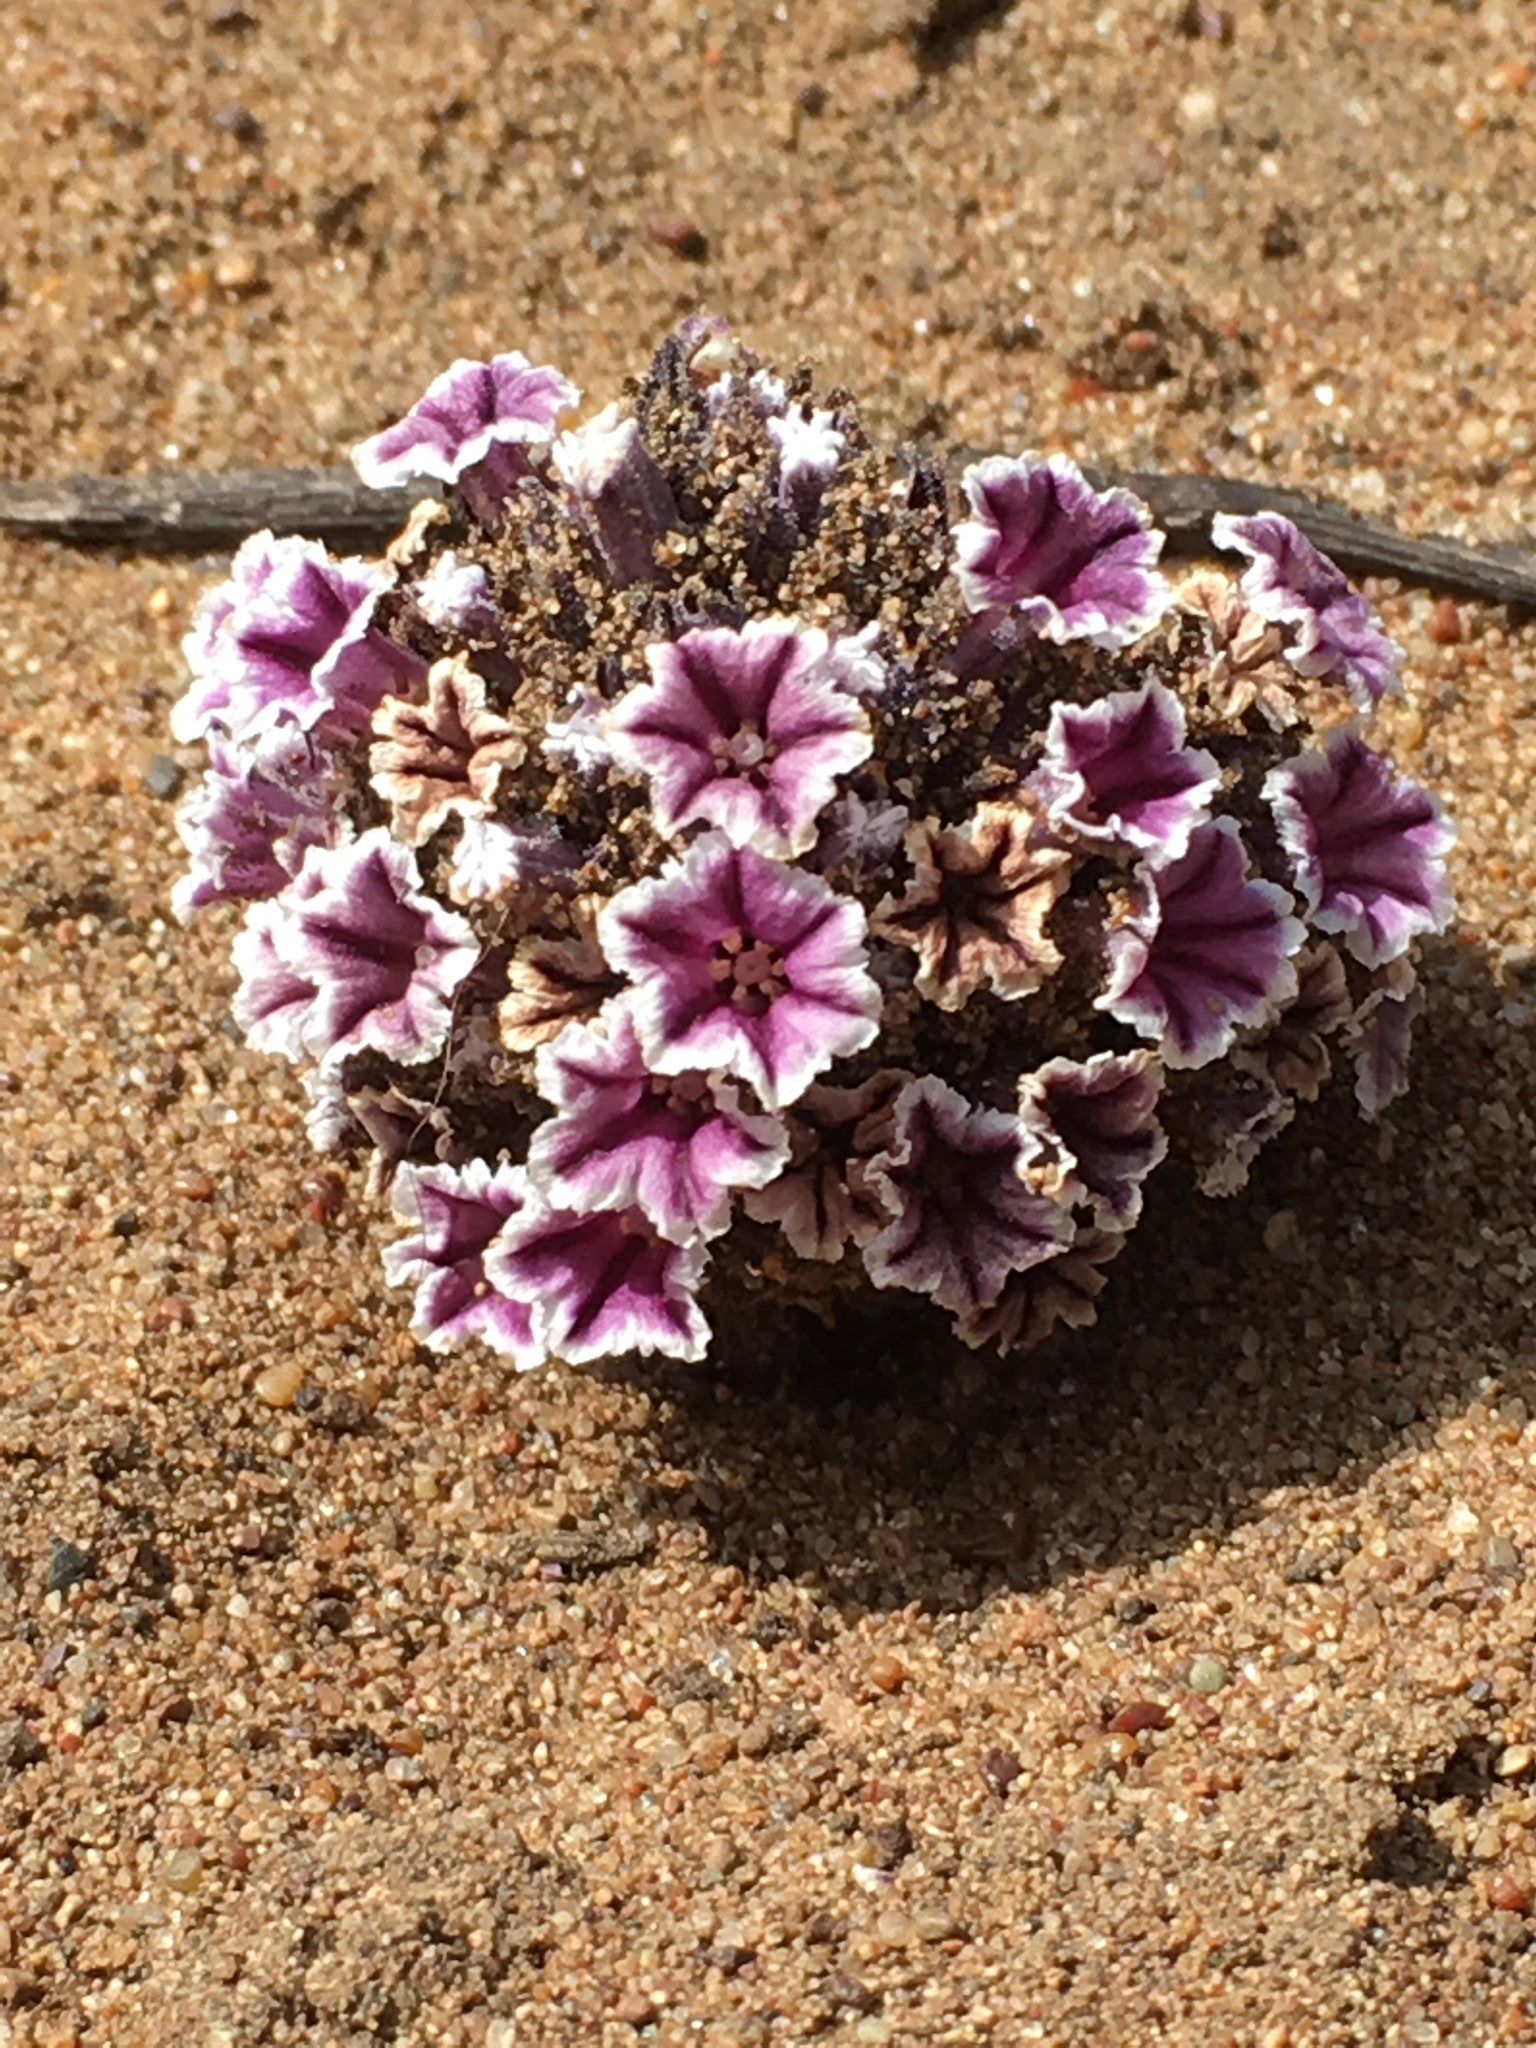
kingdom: Plantae
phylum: Tracheophyta
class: Magnoliopsida
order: Boraginales
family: Lennoaceae
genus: Pholisma
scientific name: Pholisma arenarium
